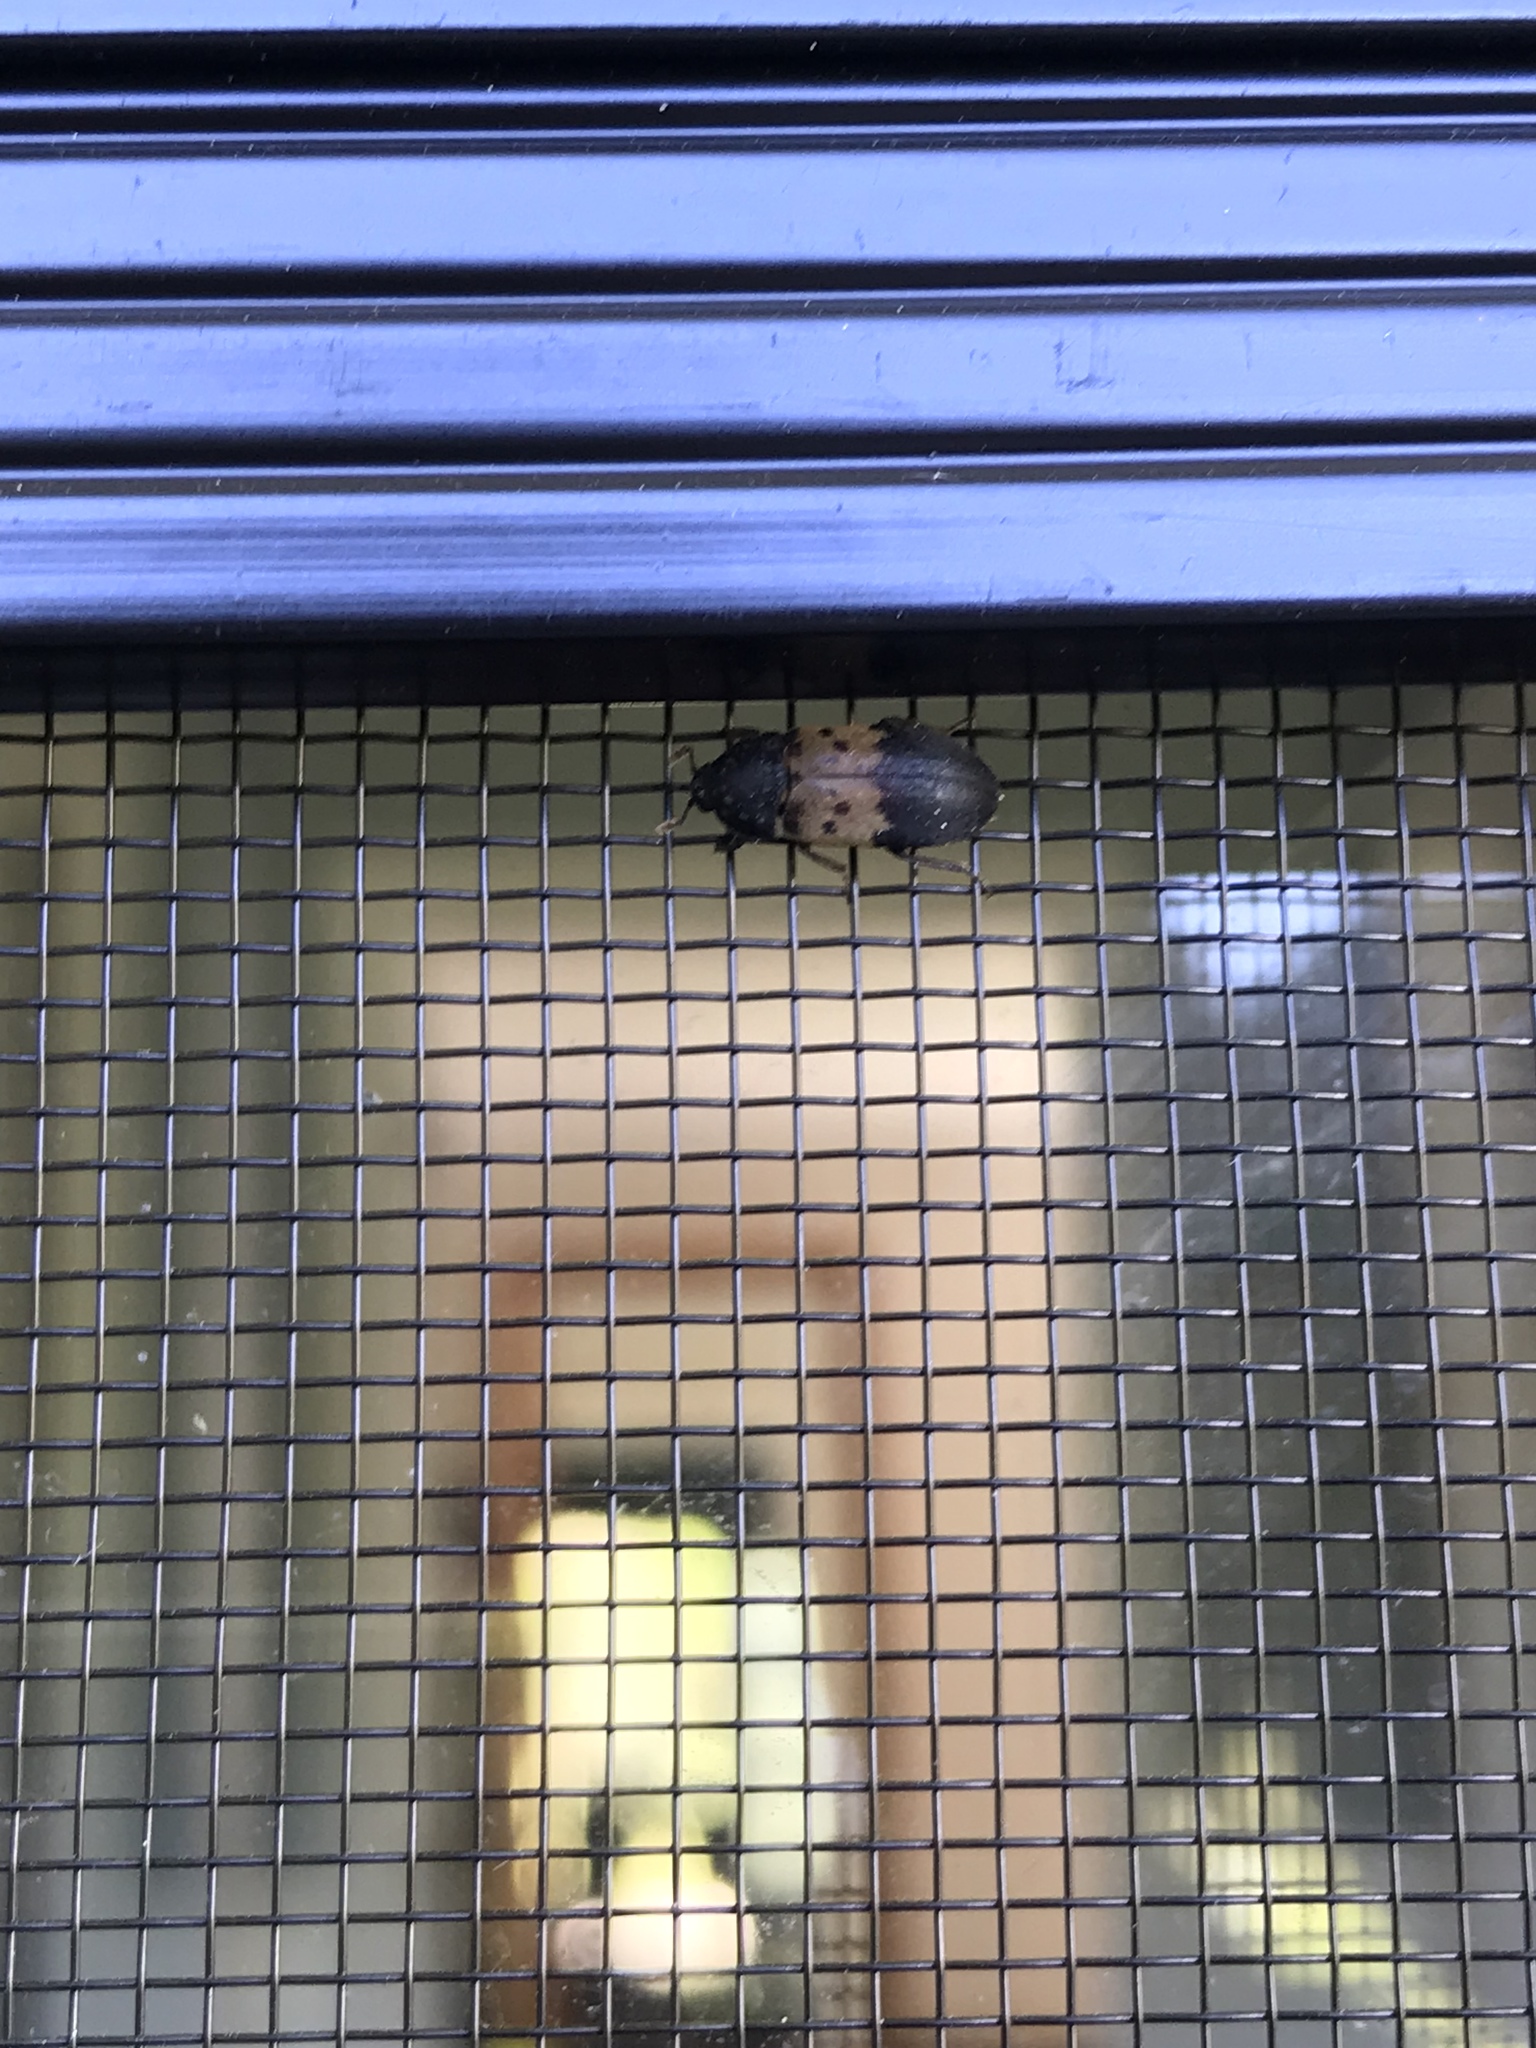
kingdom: Animalia
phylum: Arthropoda
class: Insecta
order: Coleoptera
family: Dermestidae
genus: Dermestes
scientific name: Dermestes lardarius
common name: Larder beetle
